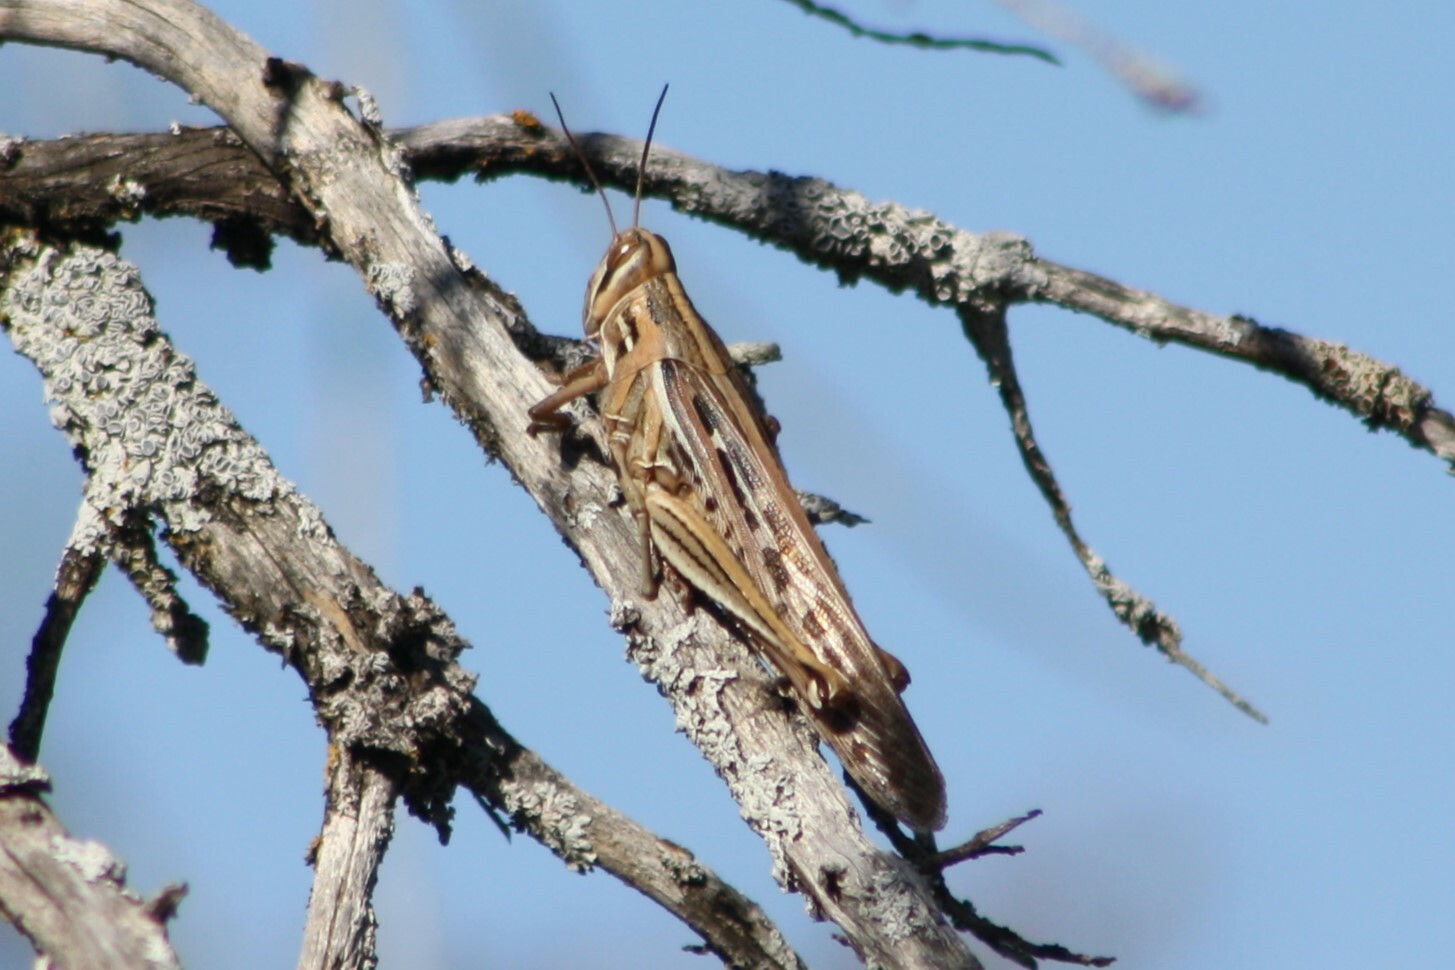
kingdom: Animalia
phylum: Arthropoda
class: Insecta
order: Orthoptera
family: Acrididae
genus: Schistocerca
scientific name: Schistocerca americana
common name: American bird locust
